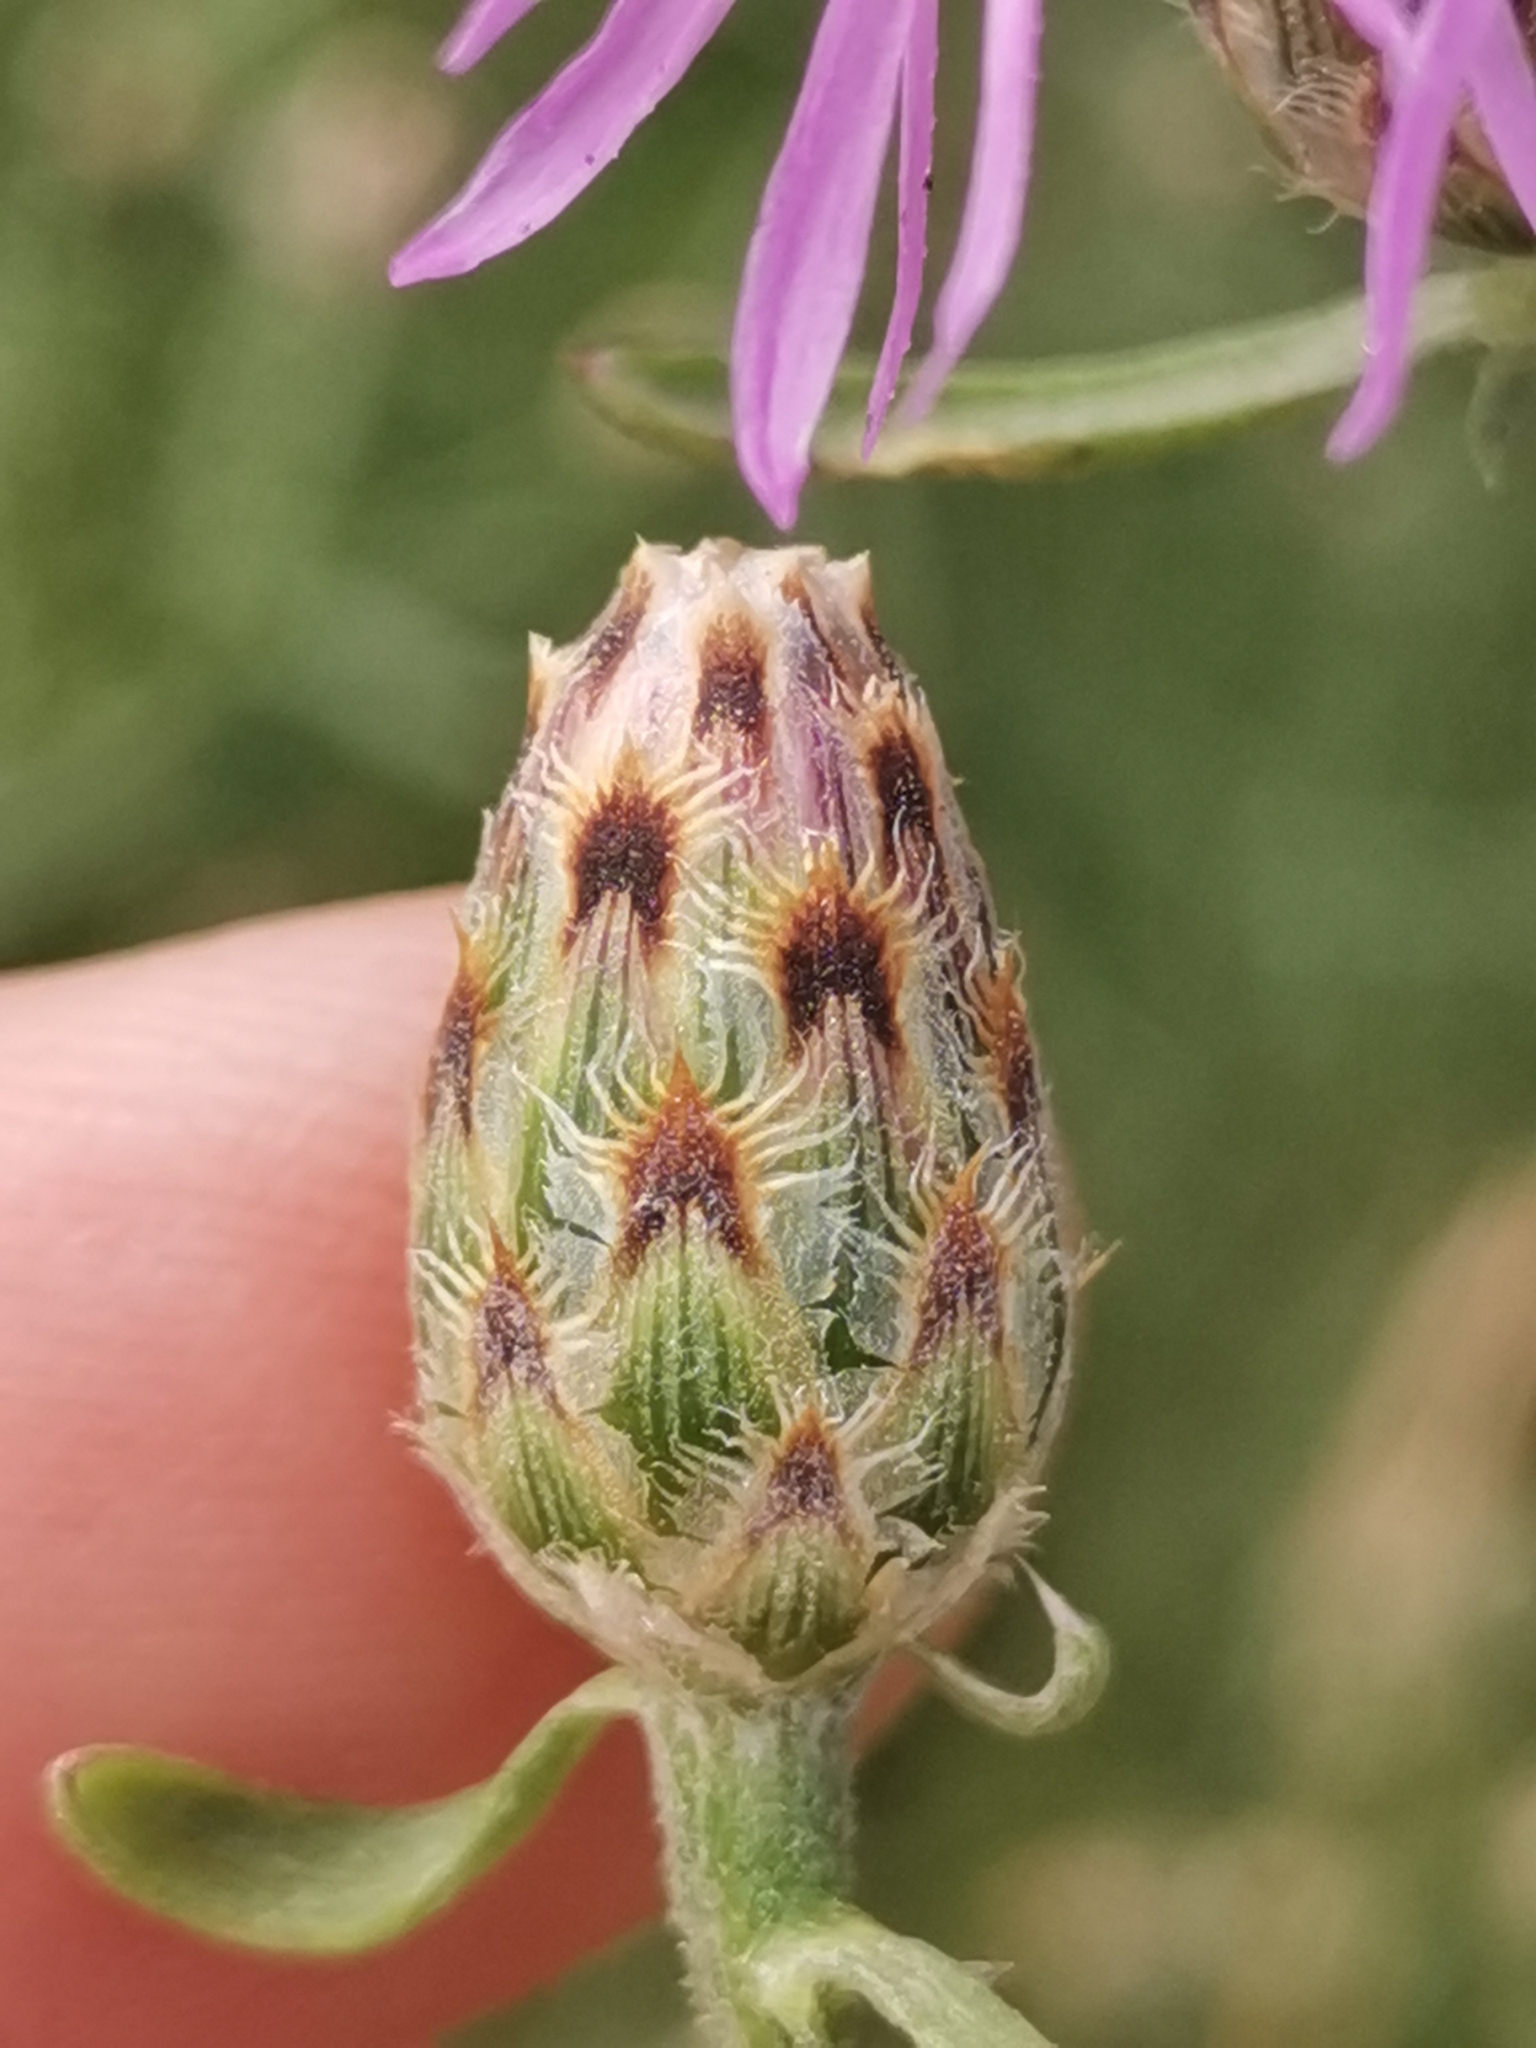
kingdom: Plantae
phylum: Tracheophyta
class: Magnoliopsida
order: Asterales
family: Asteraceae
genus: Centaurea
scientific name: Centaurea cristata
